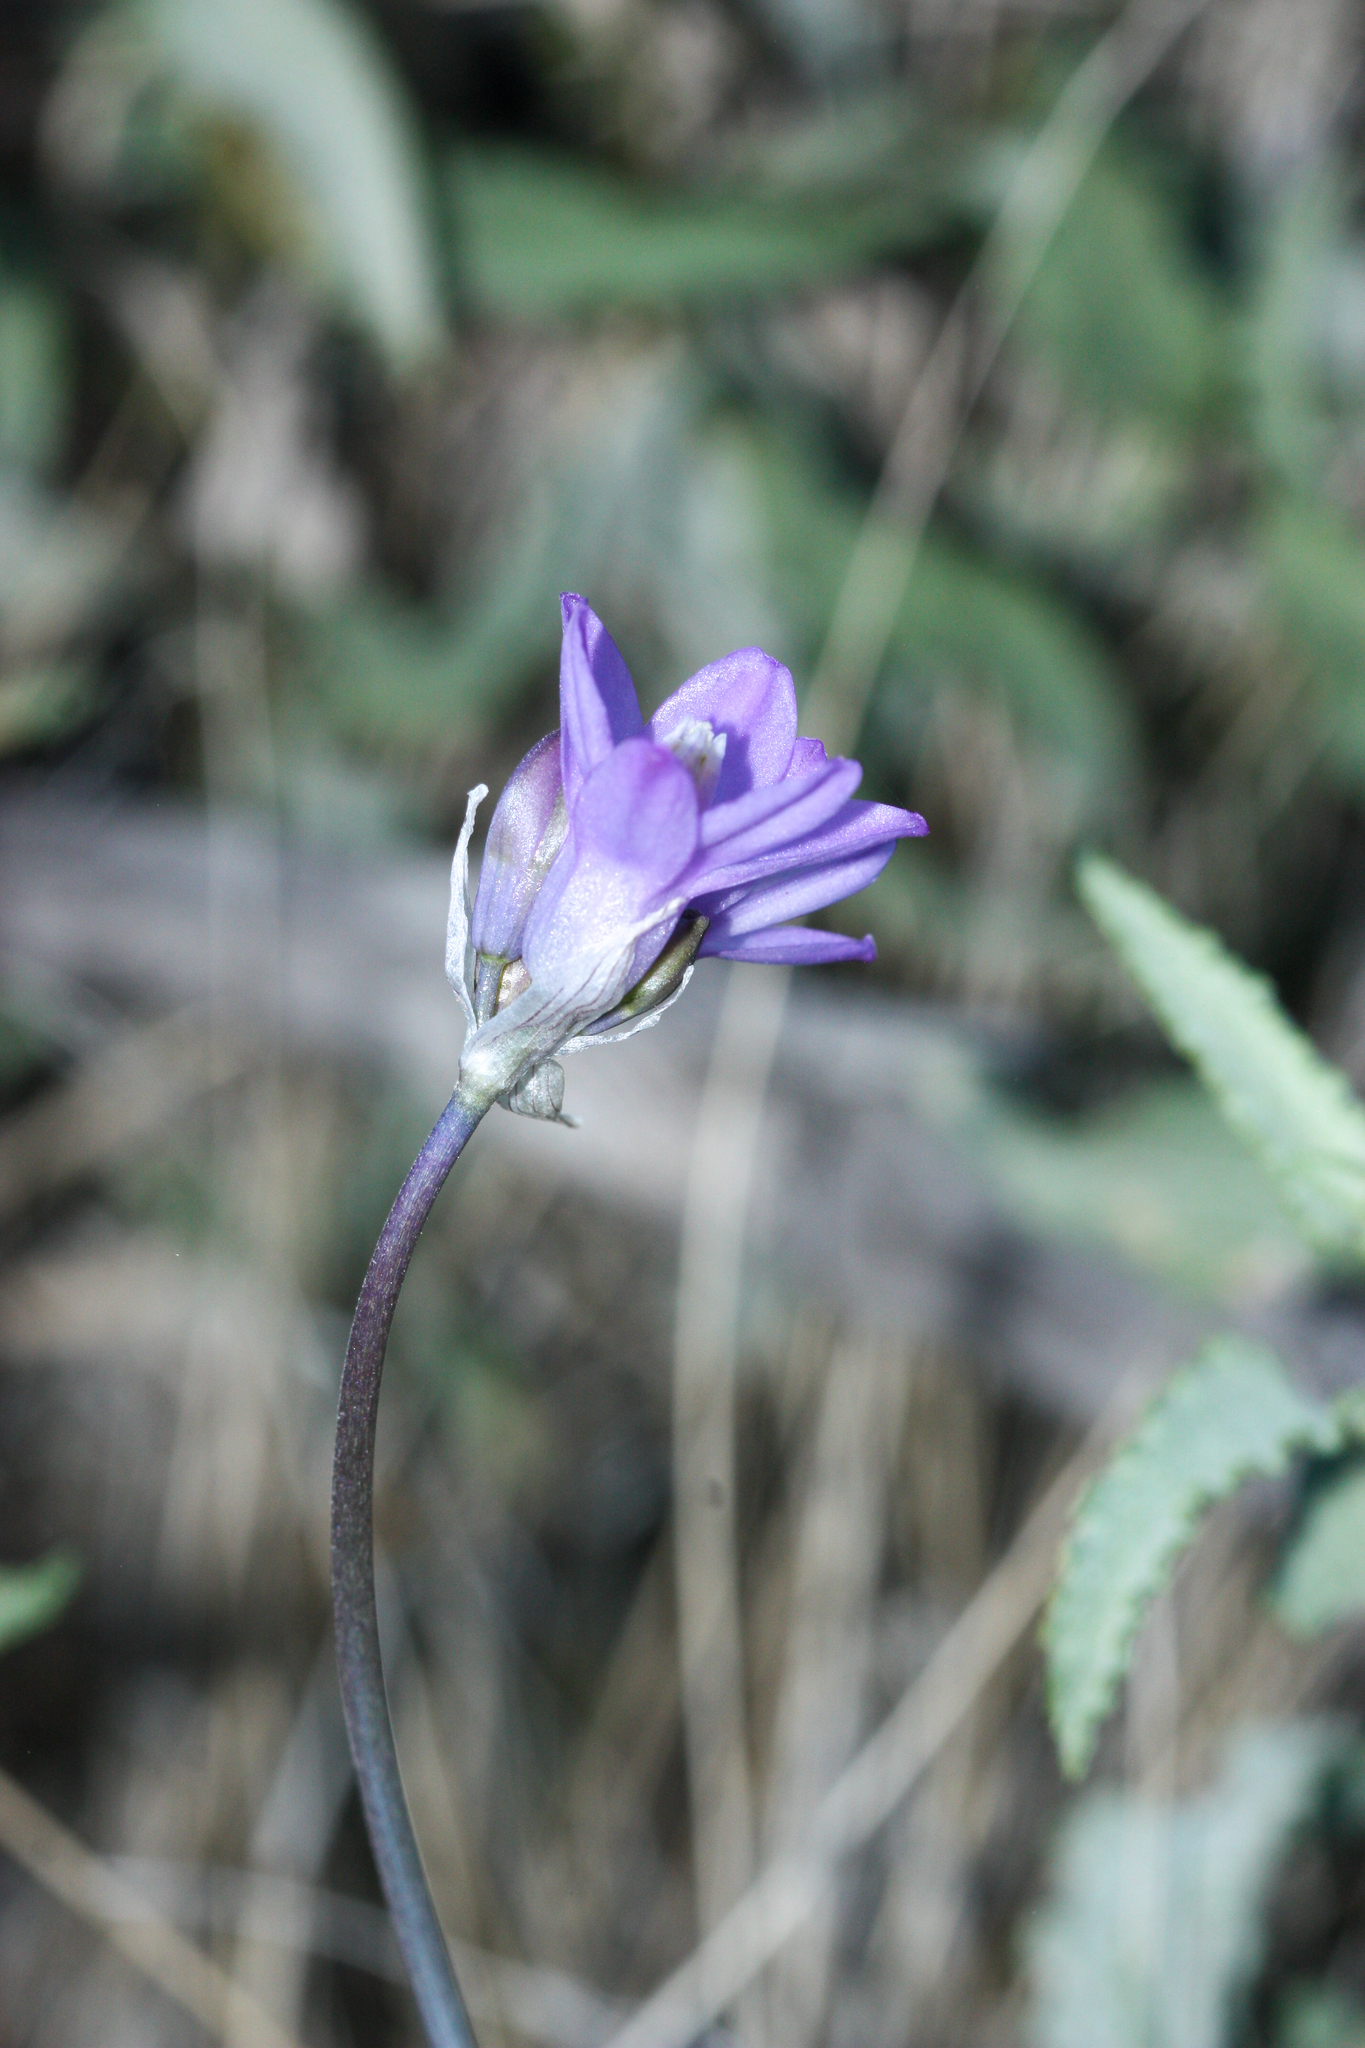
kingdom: Plantae
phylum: Tracheophyta
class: Liliopsida
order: Asparagales
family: Asparagaceae
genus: Dipterostemon
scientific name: Dipterostemon capitatus
